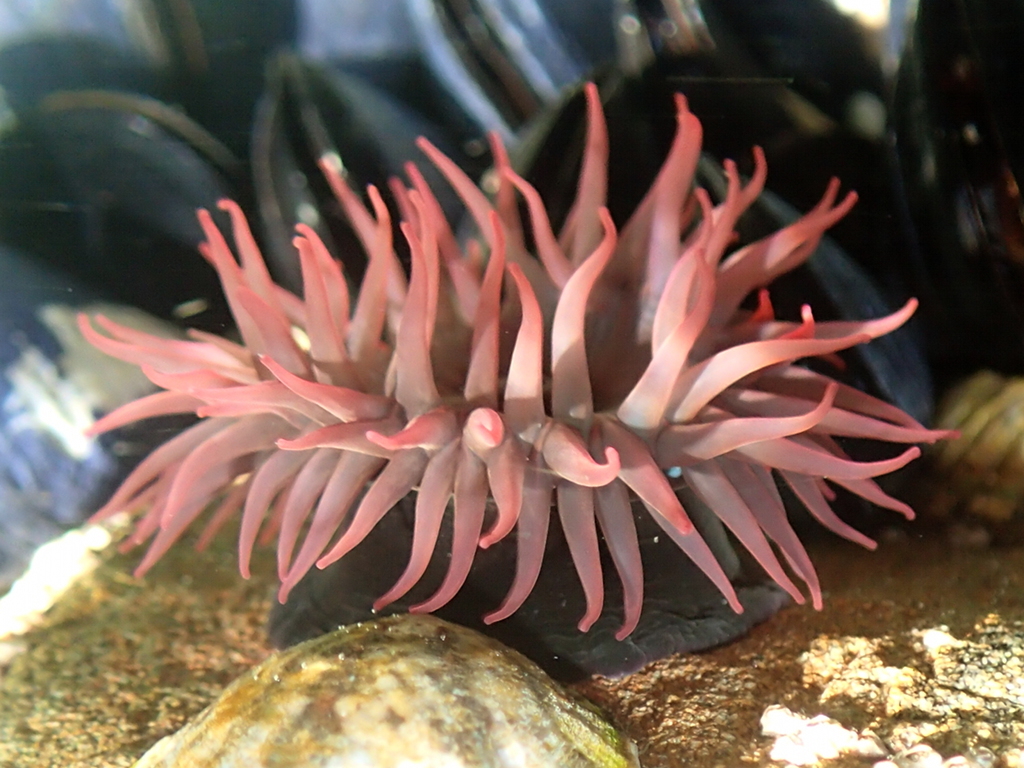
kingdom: Animalia
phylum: Cnidaria
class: Anthozoa
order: Actiniaria
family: Actiniidae
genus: Actinia
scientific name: Actinia tenebrosa
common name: Waratah anemone
